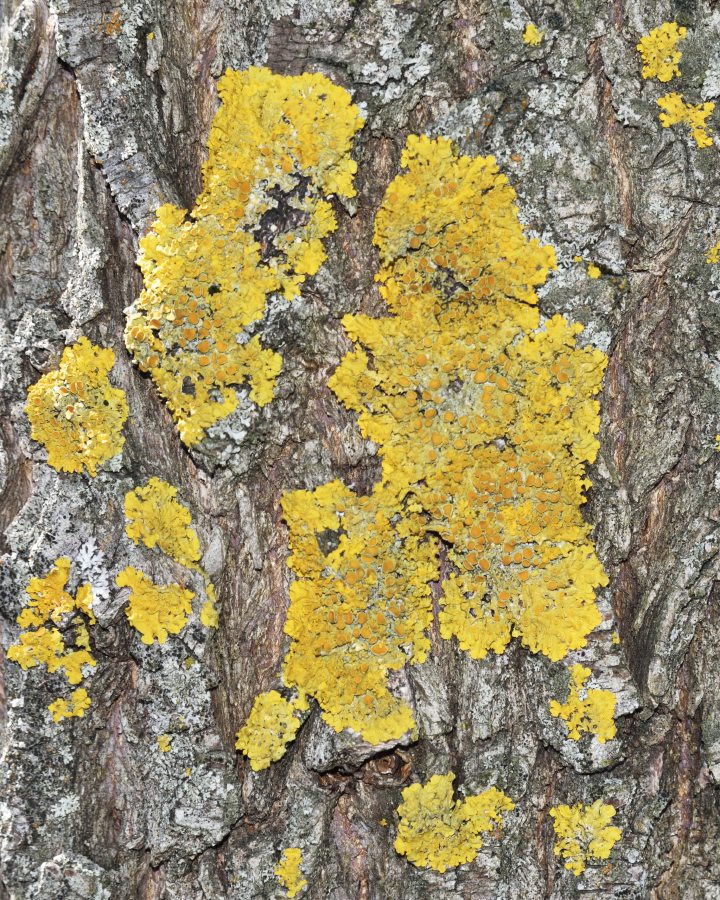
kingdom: Fungi
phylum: Ascomycota
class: Lecanoromycetes
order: Teloschistales
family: Teloschistaceae
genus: Xanthoria
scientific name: Xanthoria parietina
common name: Common orange lichen
